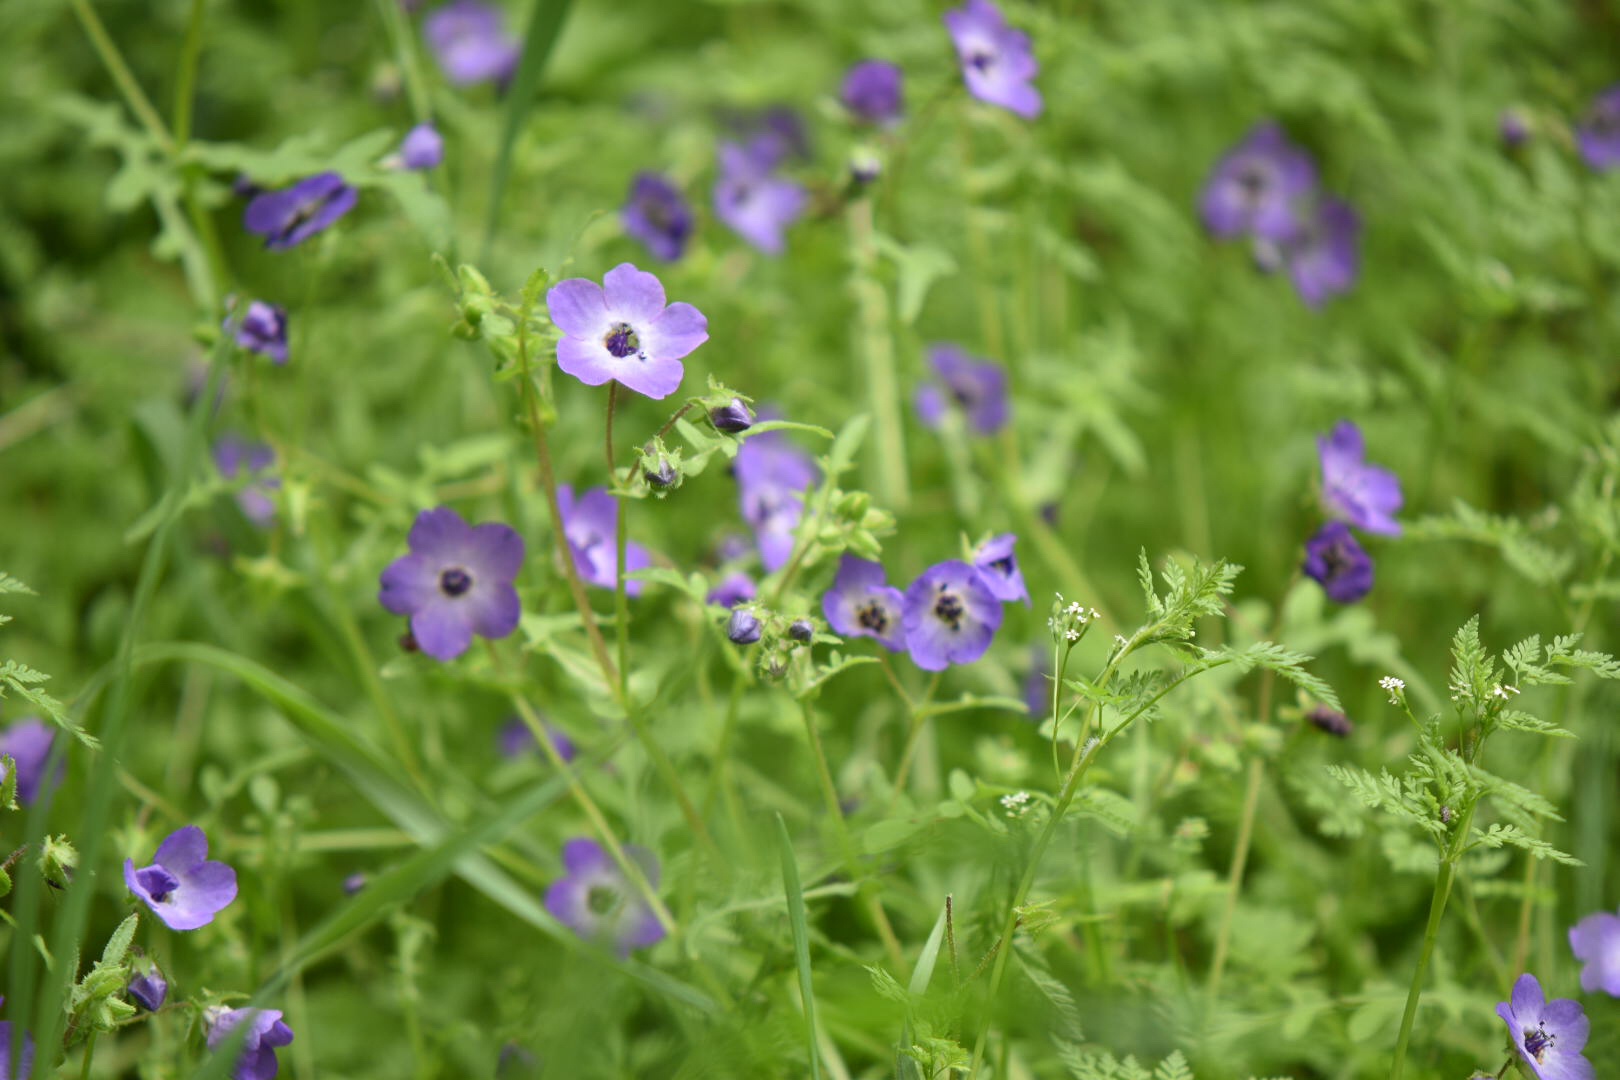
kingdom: Plantae
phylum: Tracheophyta
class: Magnoliopsida
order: Boraginales
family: Hydrophyllaceae
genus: Pholistoma
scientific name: Pholistoma auritum
